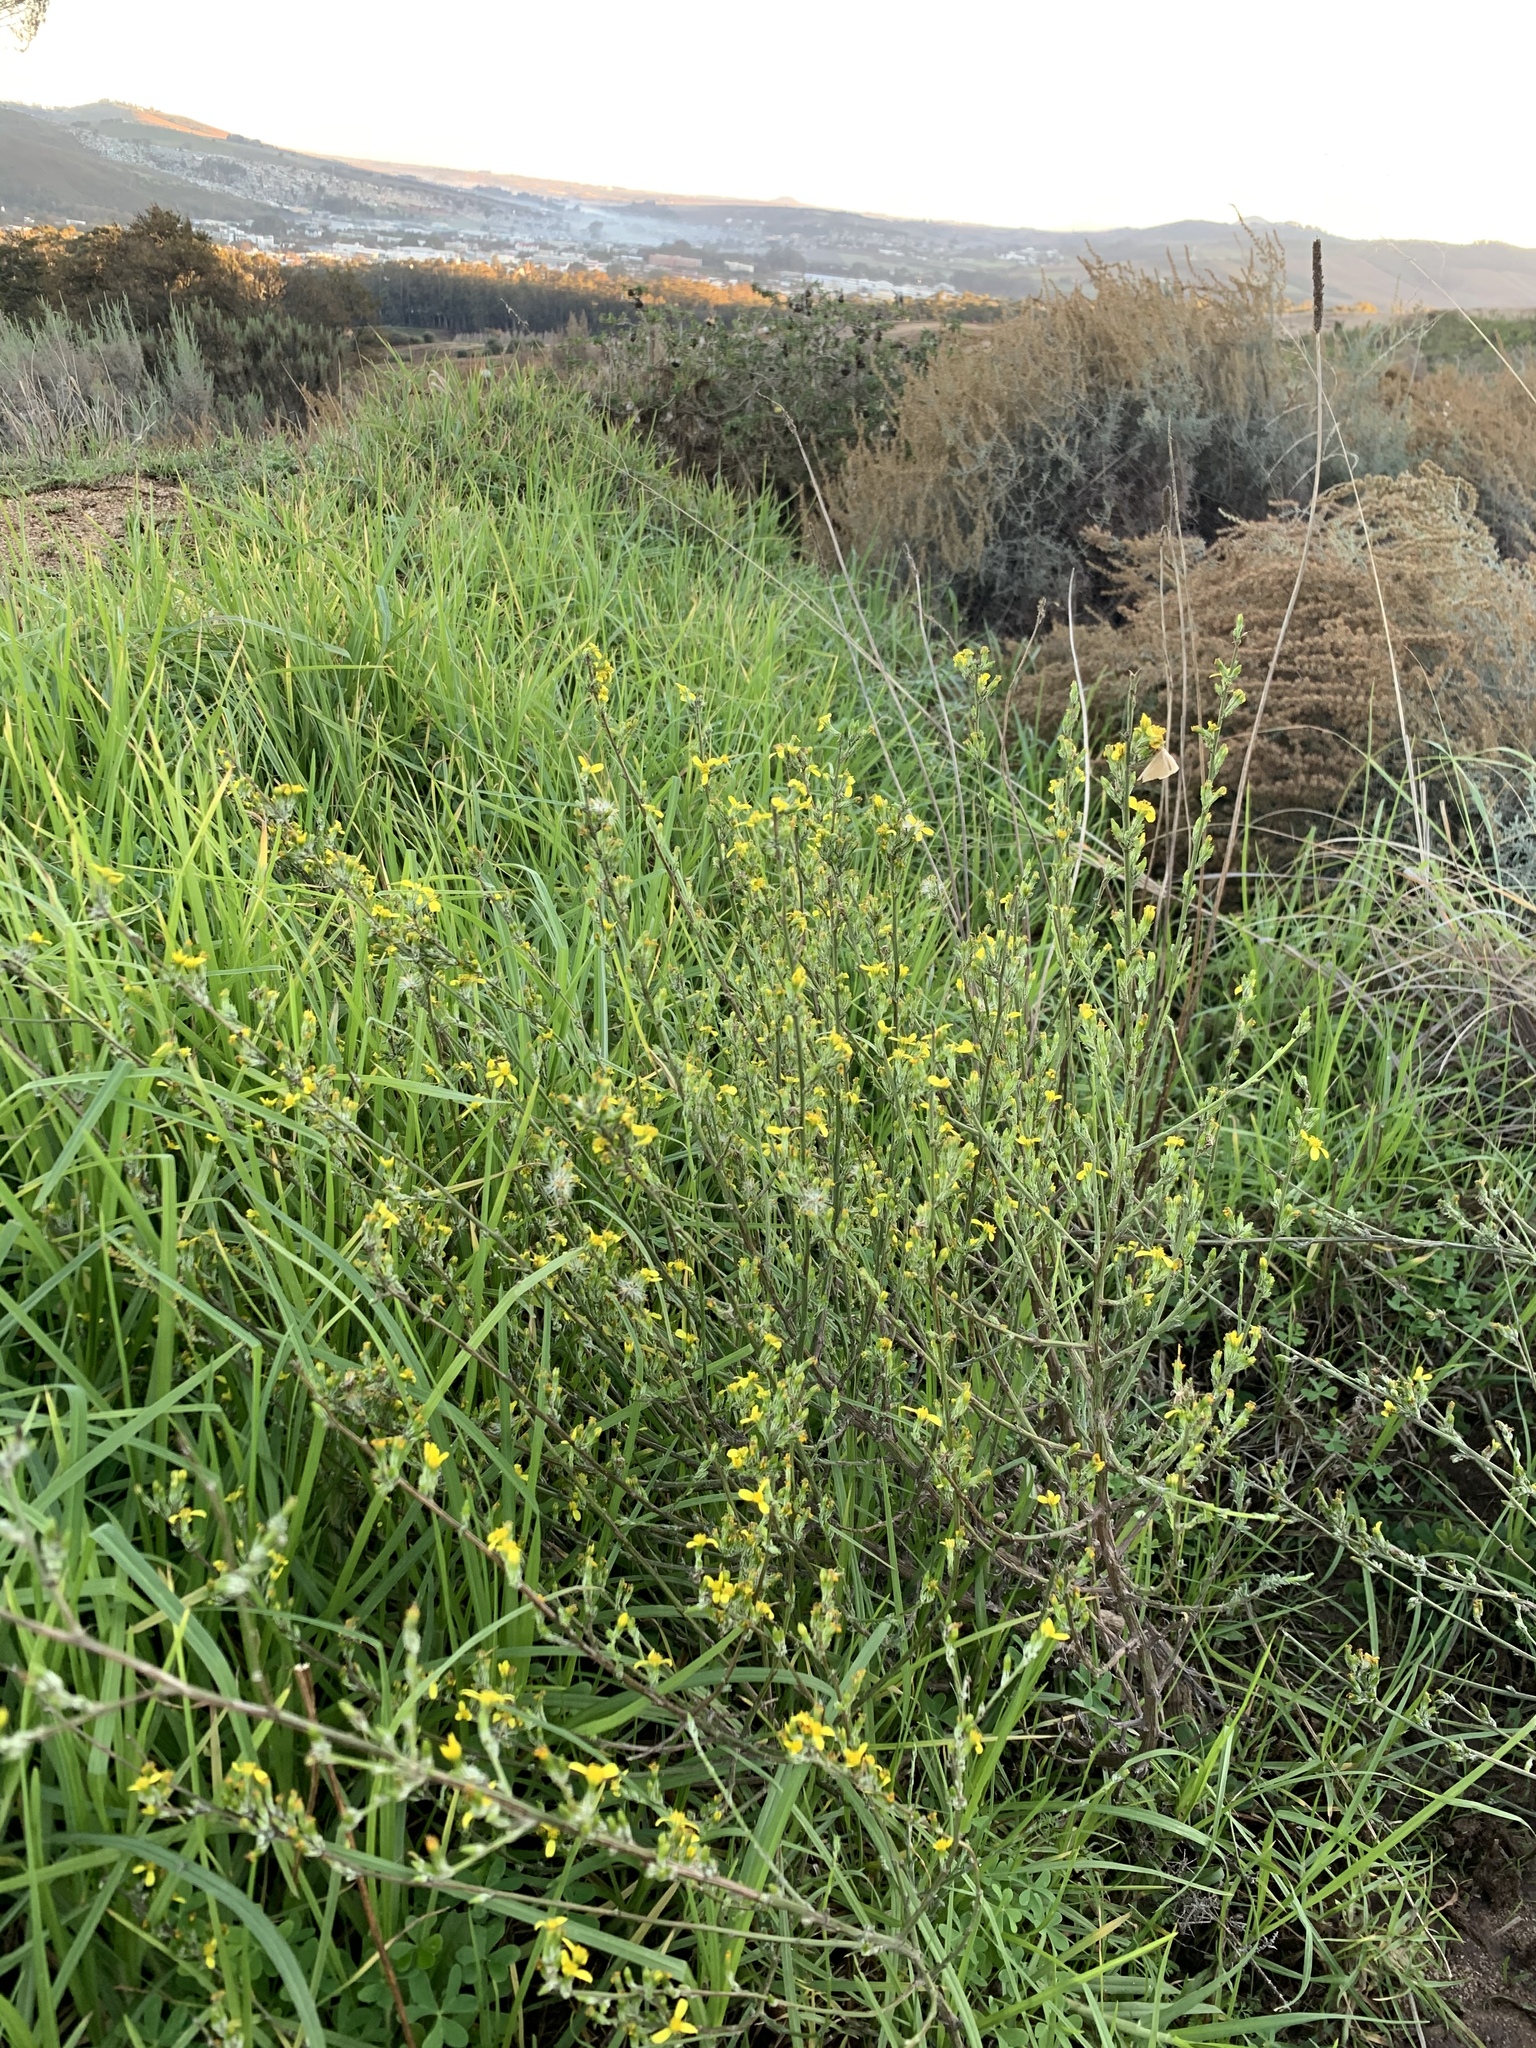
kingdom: Plantae
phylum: Tracheophyta
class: Magnoliopsida
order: Asterales
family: Asteraceae
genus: Senecio
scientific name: Senecio pubigerus
